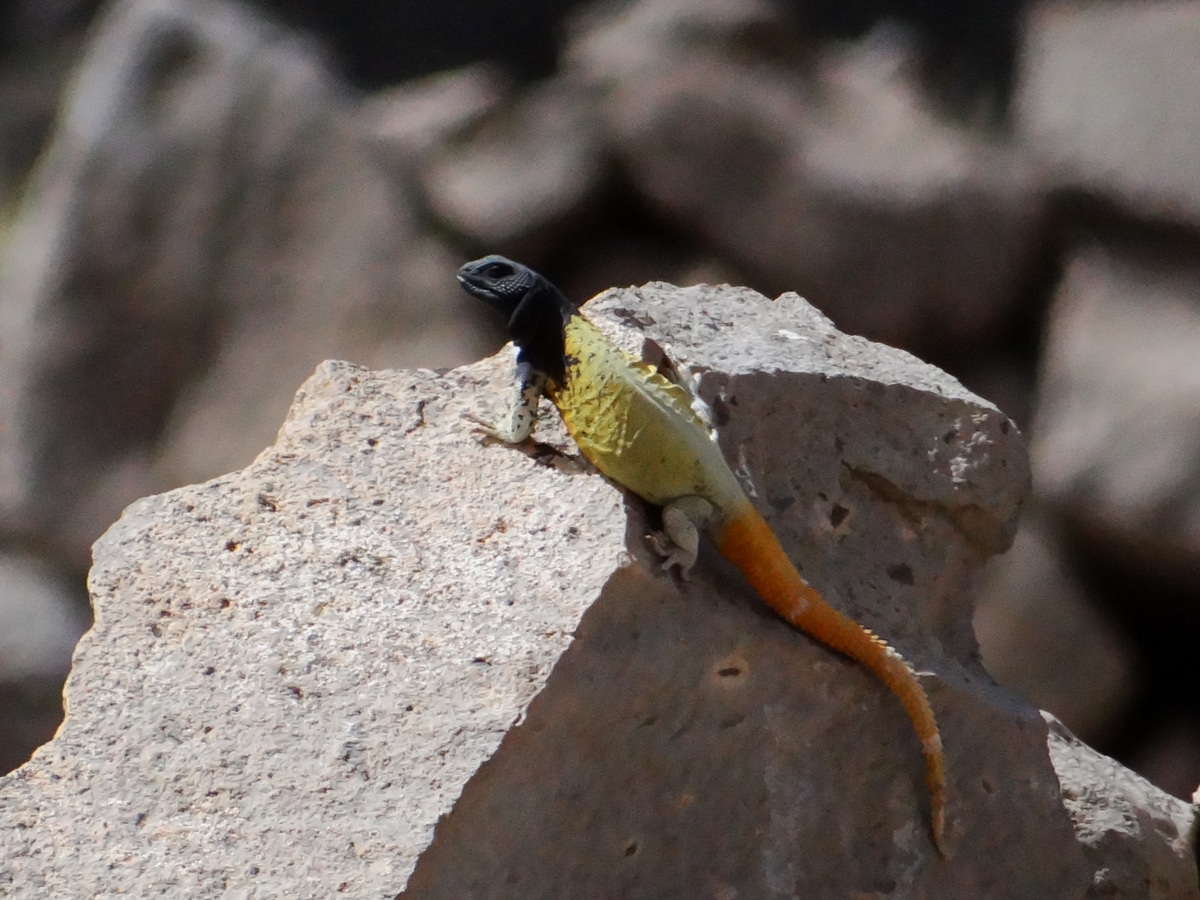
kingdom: Animalia
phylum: Chordata
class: Squamata
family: Liolaemidae
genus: Phymaturus
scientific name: Phymaturus verdugo
